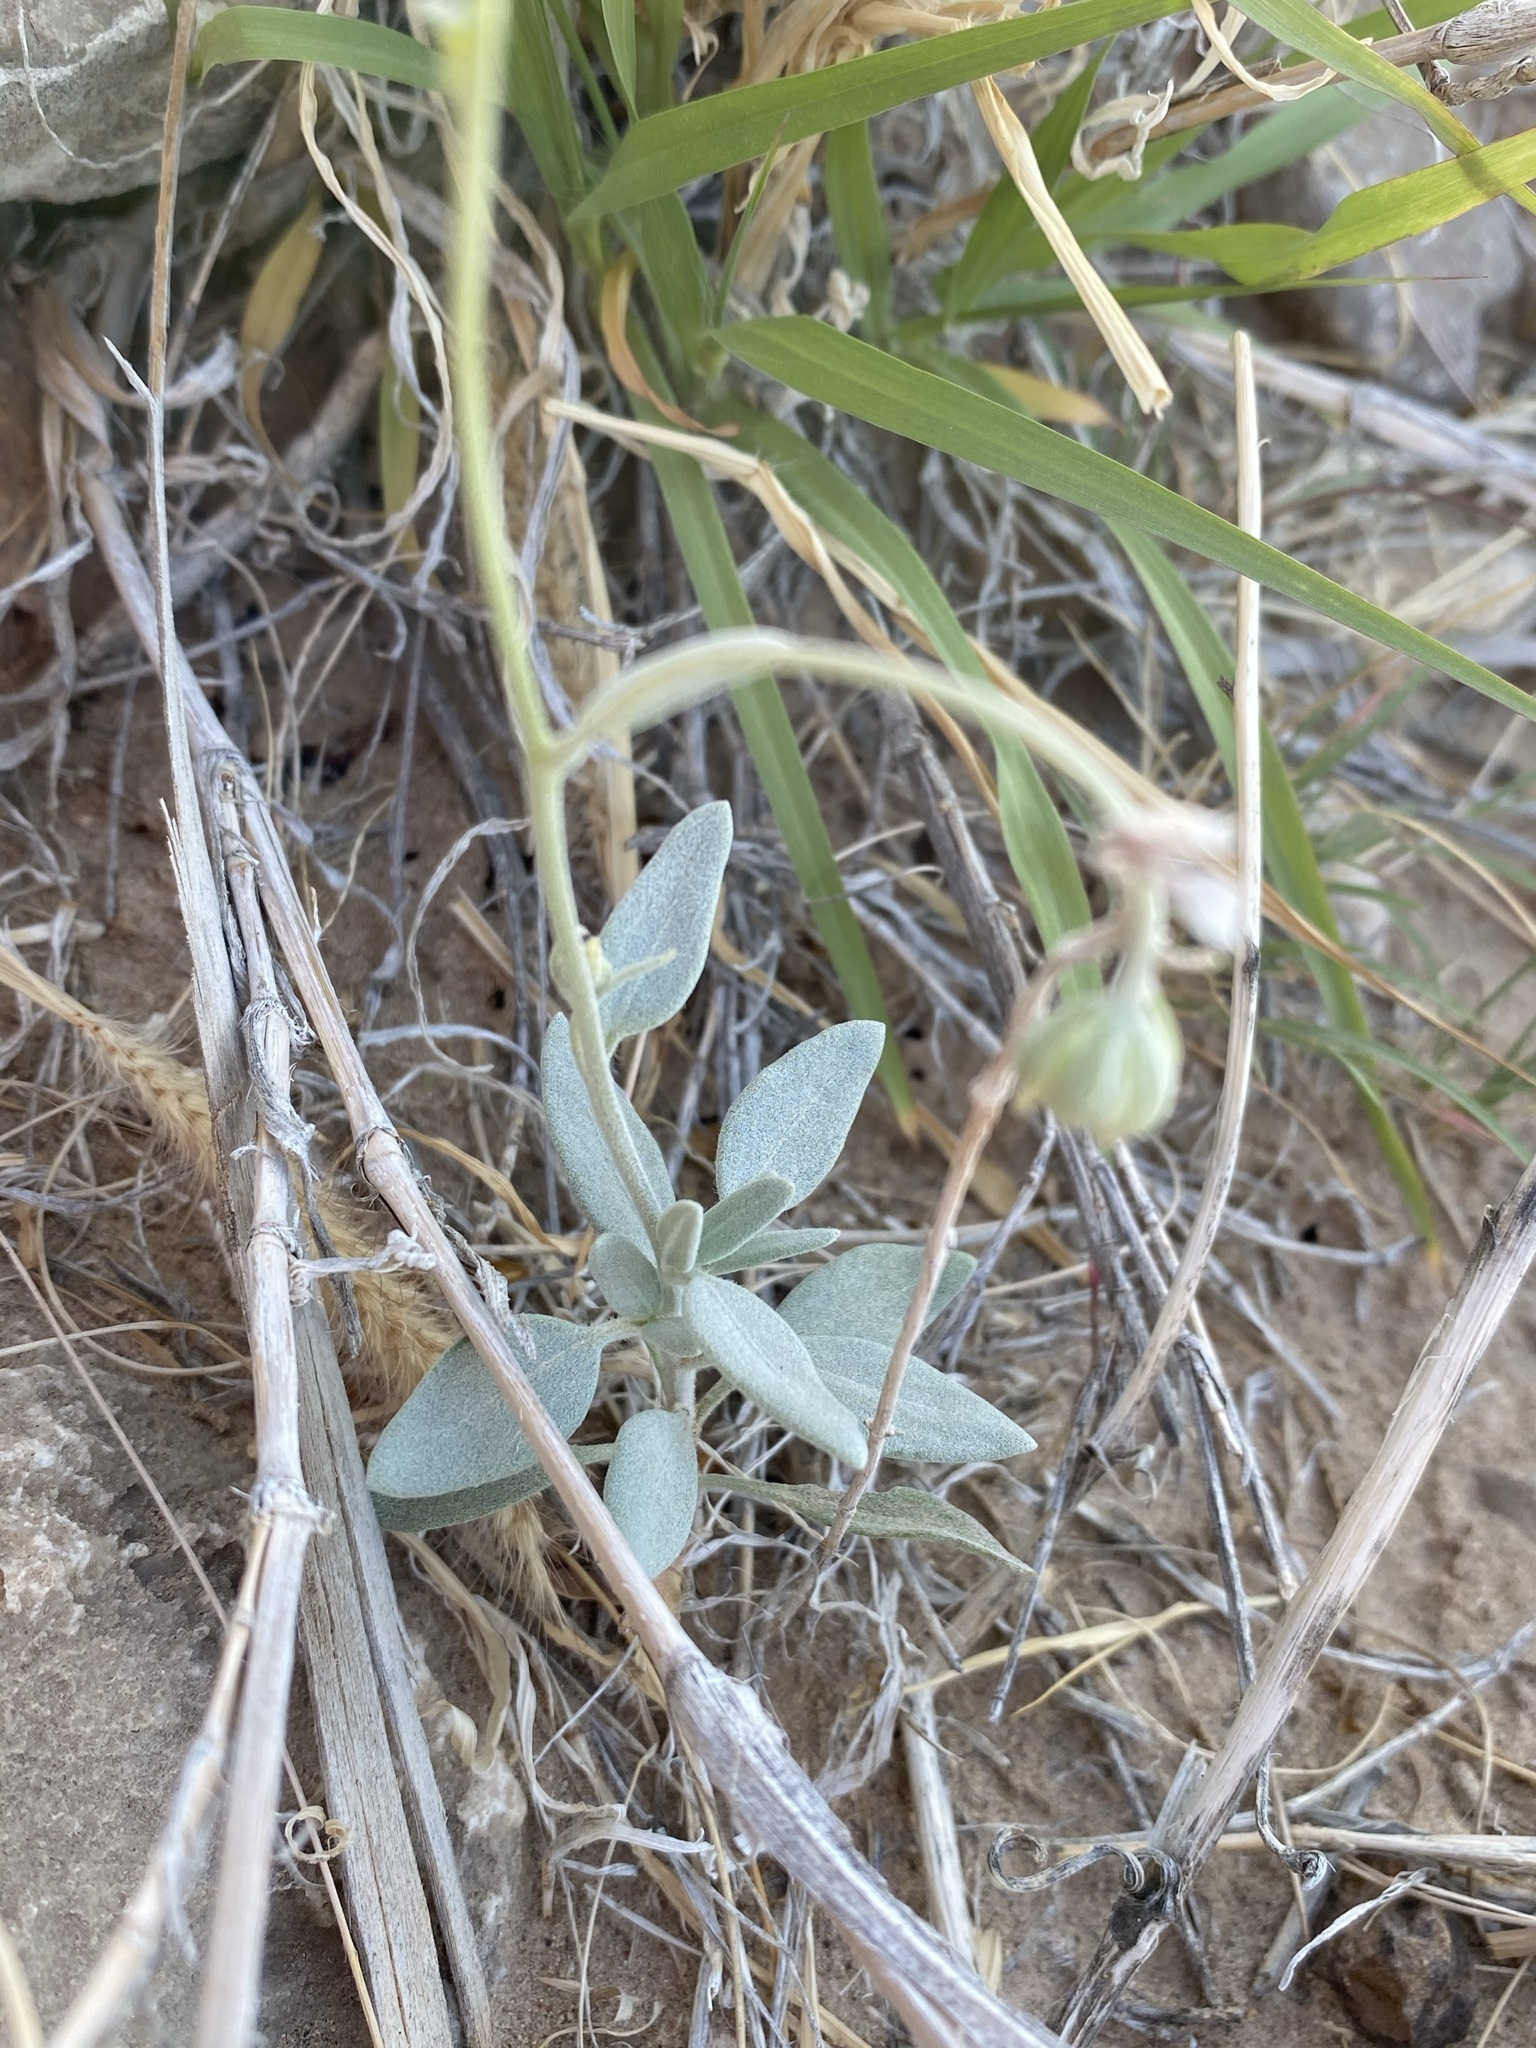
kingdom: Plantae
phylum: Tracheophyta
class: Magnoliopsida
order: Asterales
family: Asteraceae
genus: Picradeniopsis
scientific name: Picradeniopsis absinthifolia
